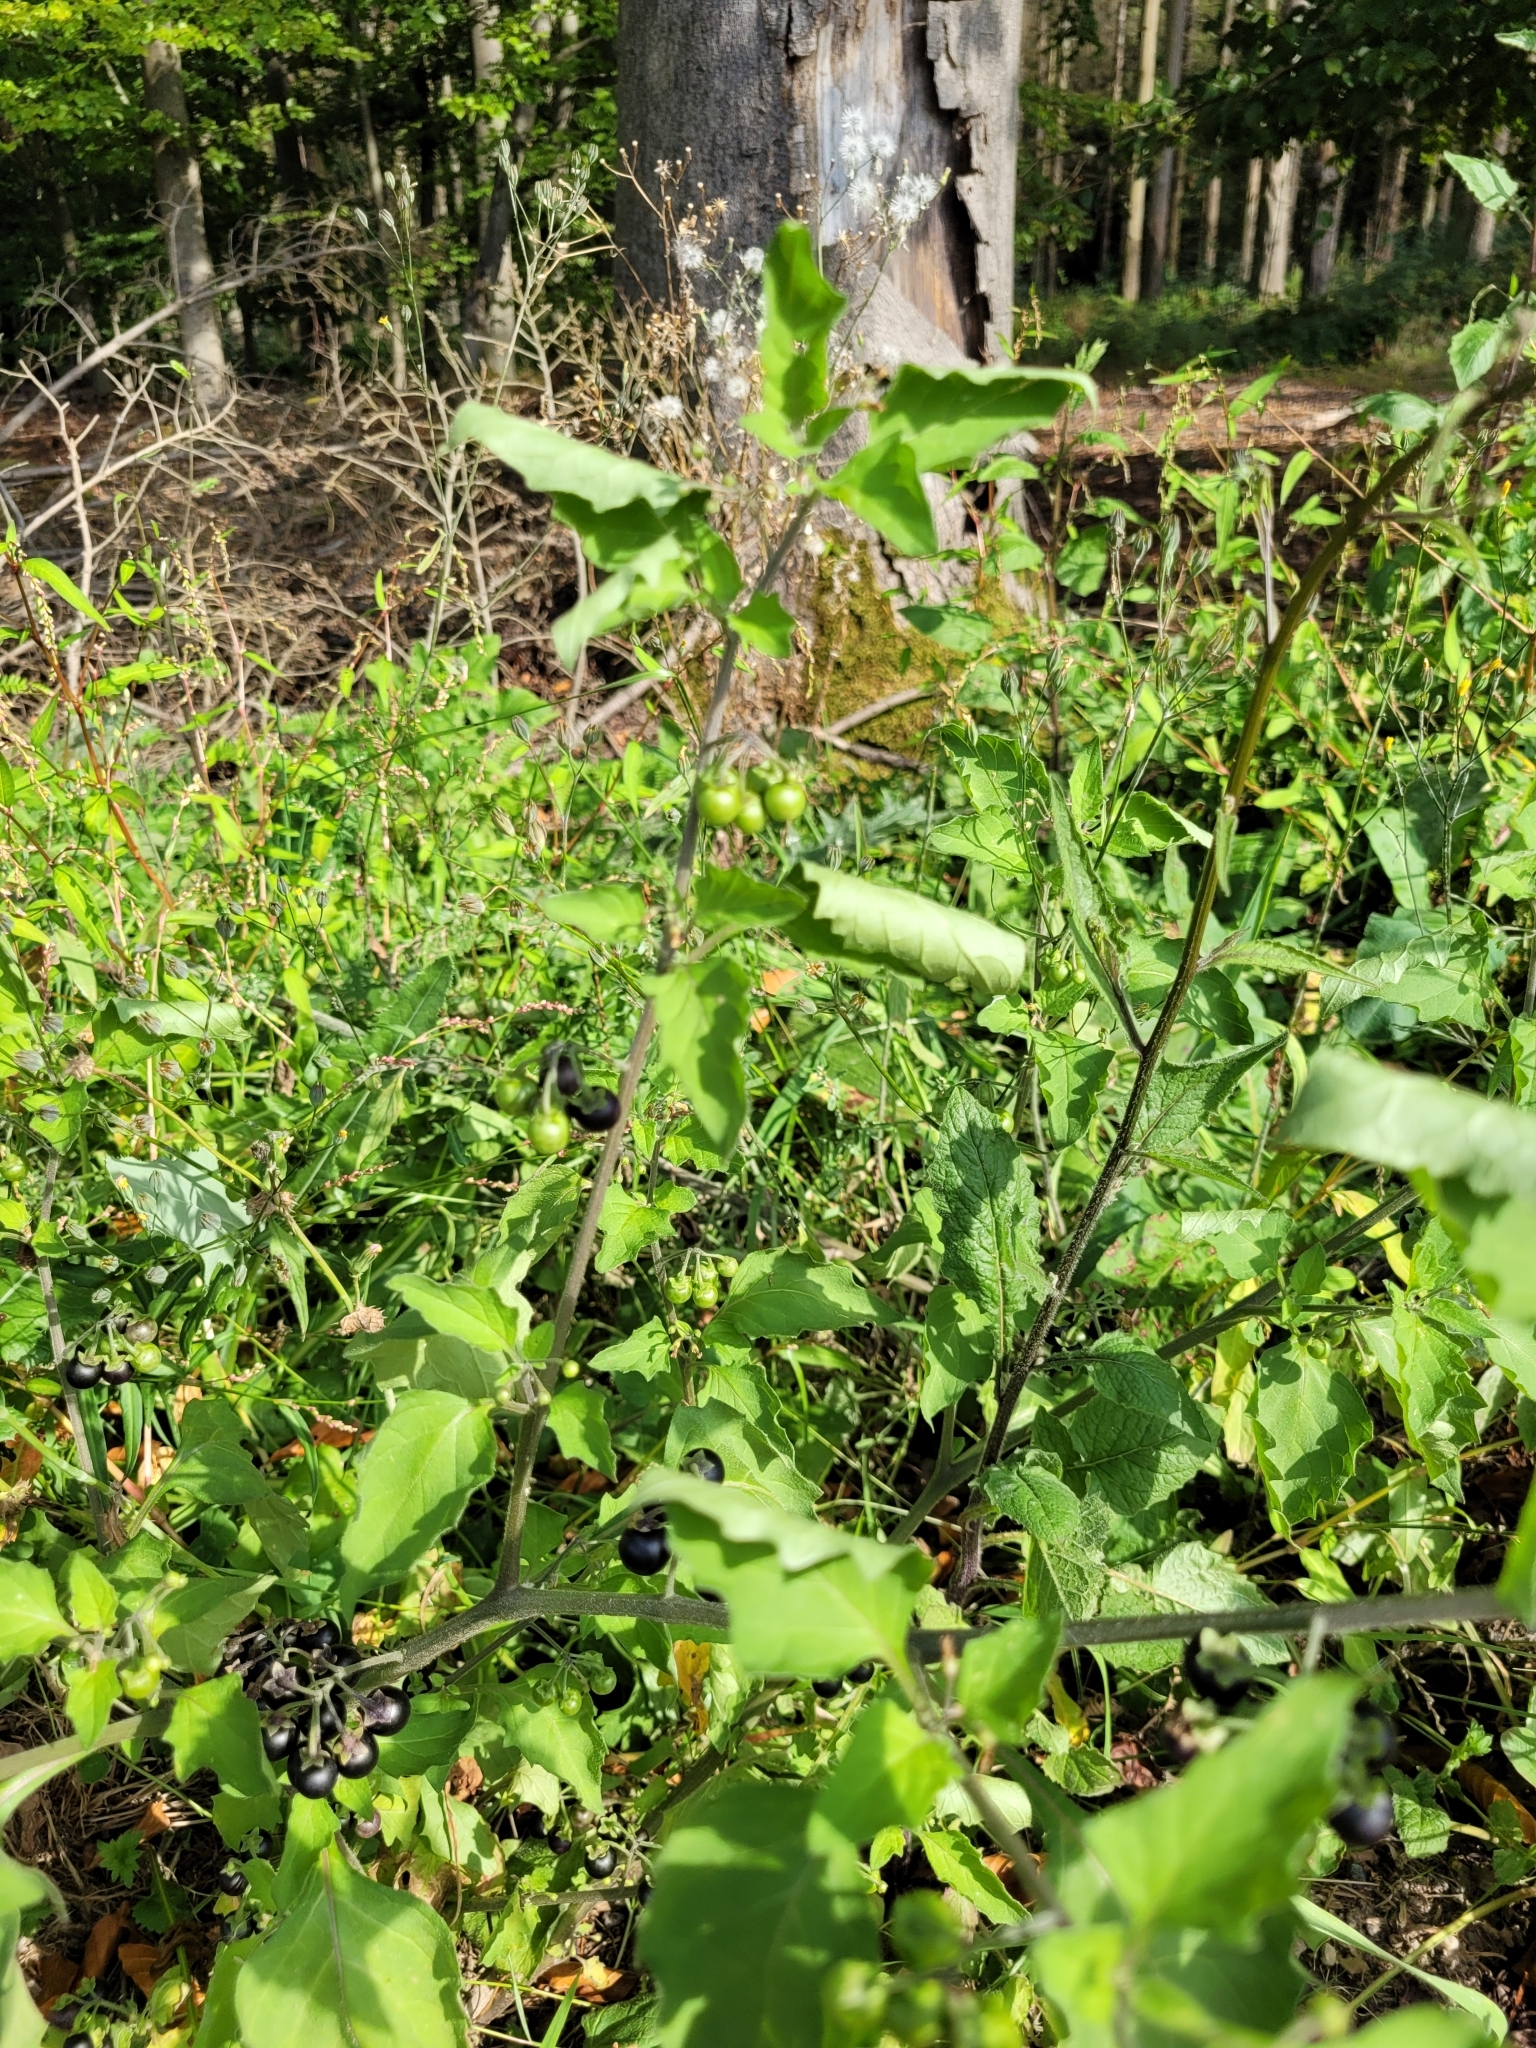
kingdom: Plantae
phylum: Tracheophyta
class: Magnoliopsida
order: Solanales
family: Solanaceae
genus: Solanum
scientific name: Solanum nigrum
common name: Black nightshade
